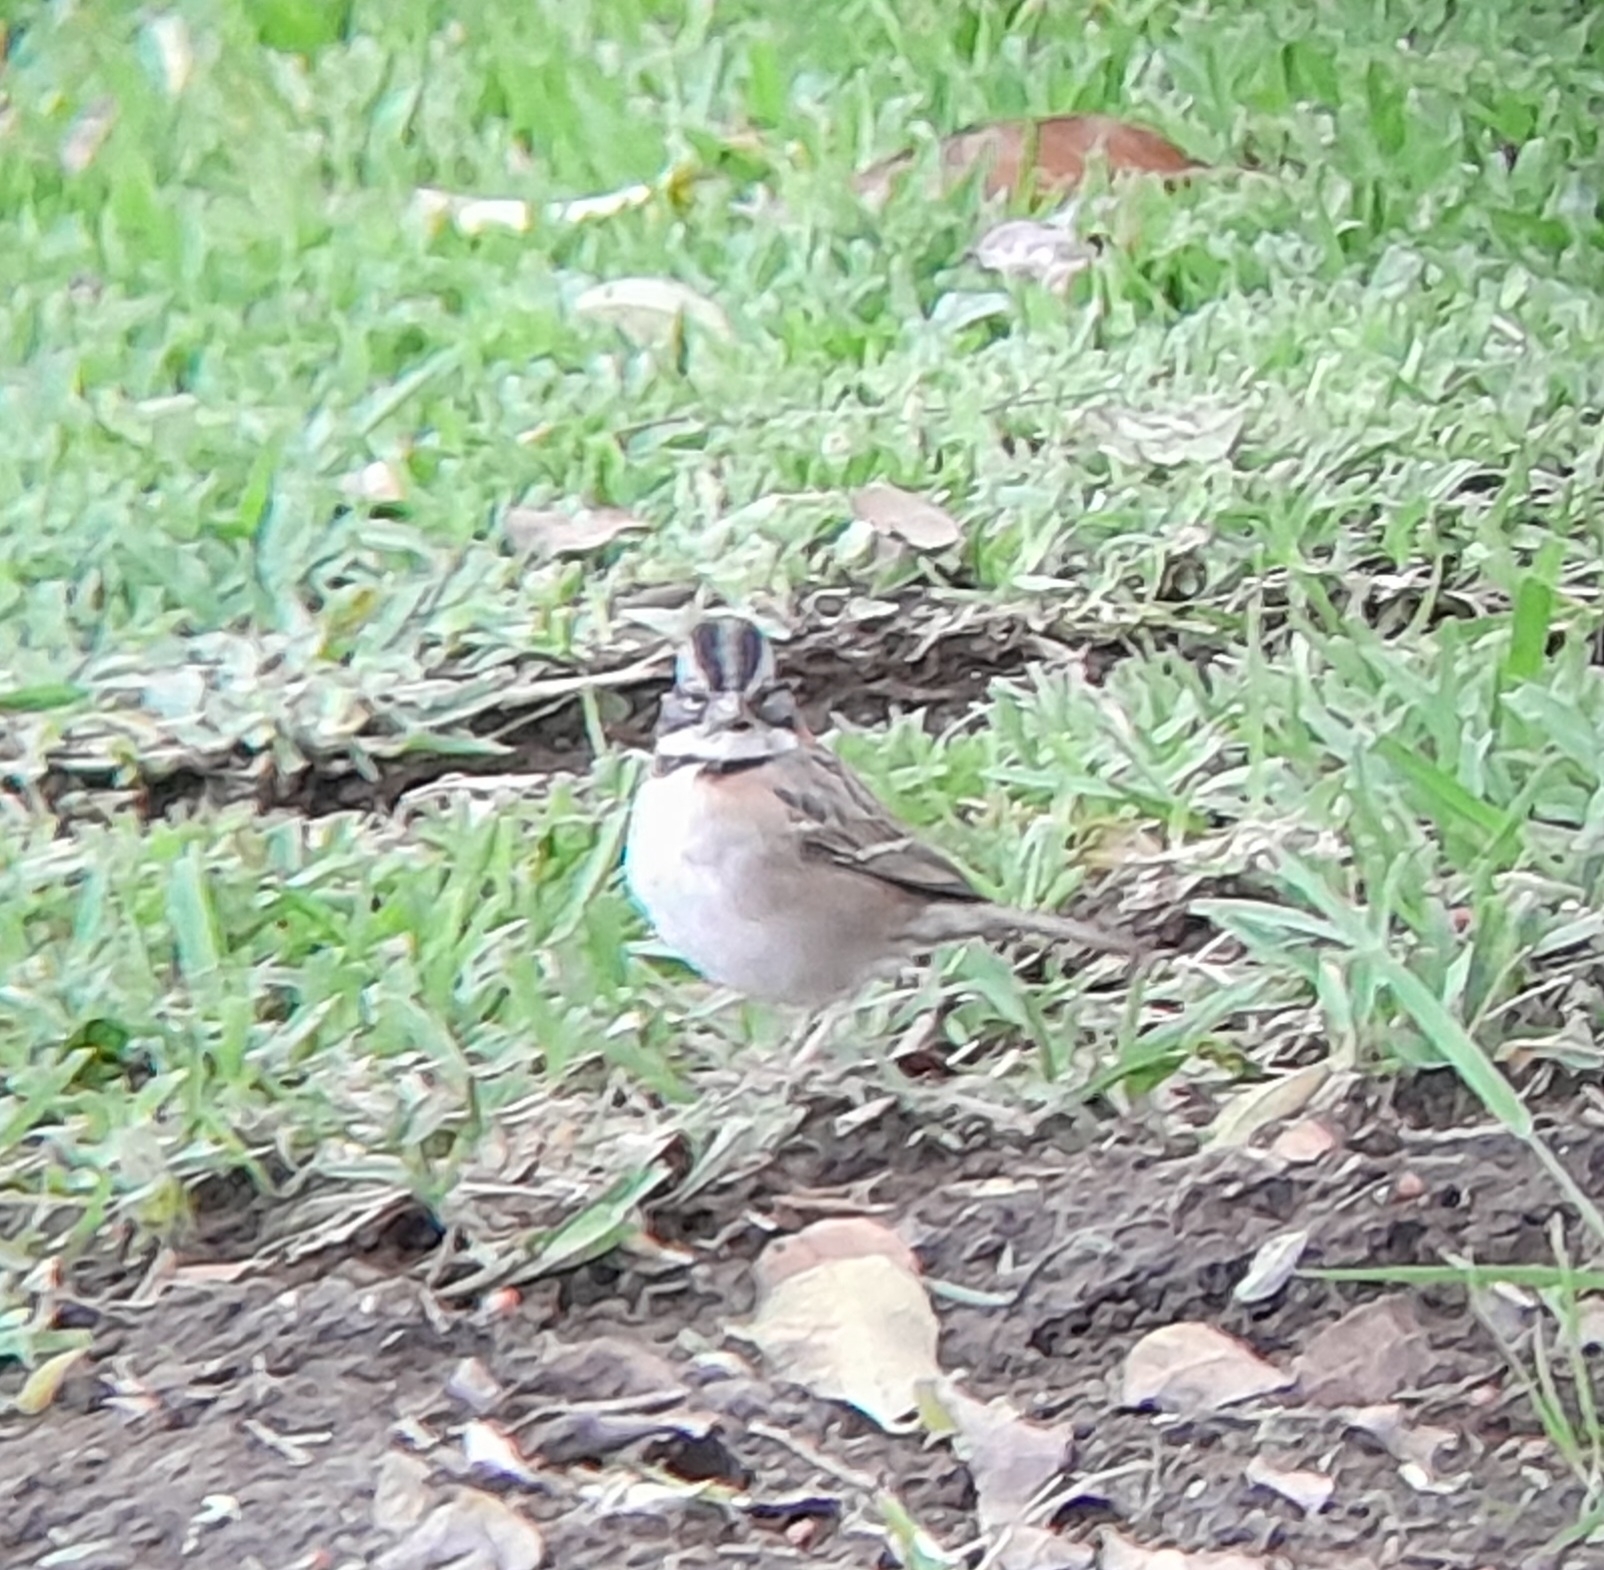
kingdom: Animalia
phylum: Chordata
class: Aves
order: Passeriformes
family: Passerellidae
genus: Zonotrichia
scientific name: Zonotrichia capensis
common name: Rufous-collared sparrow
